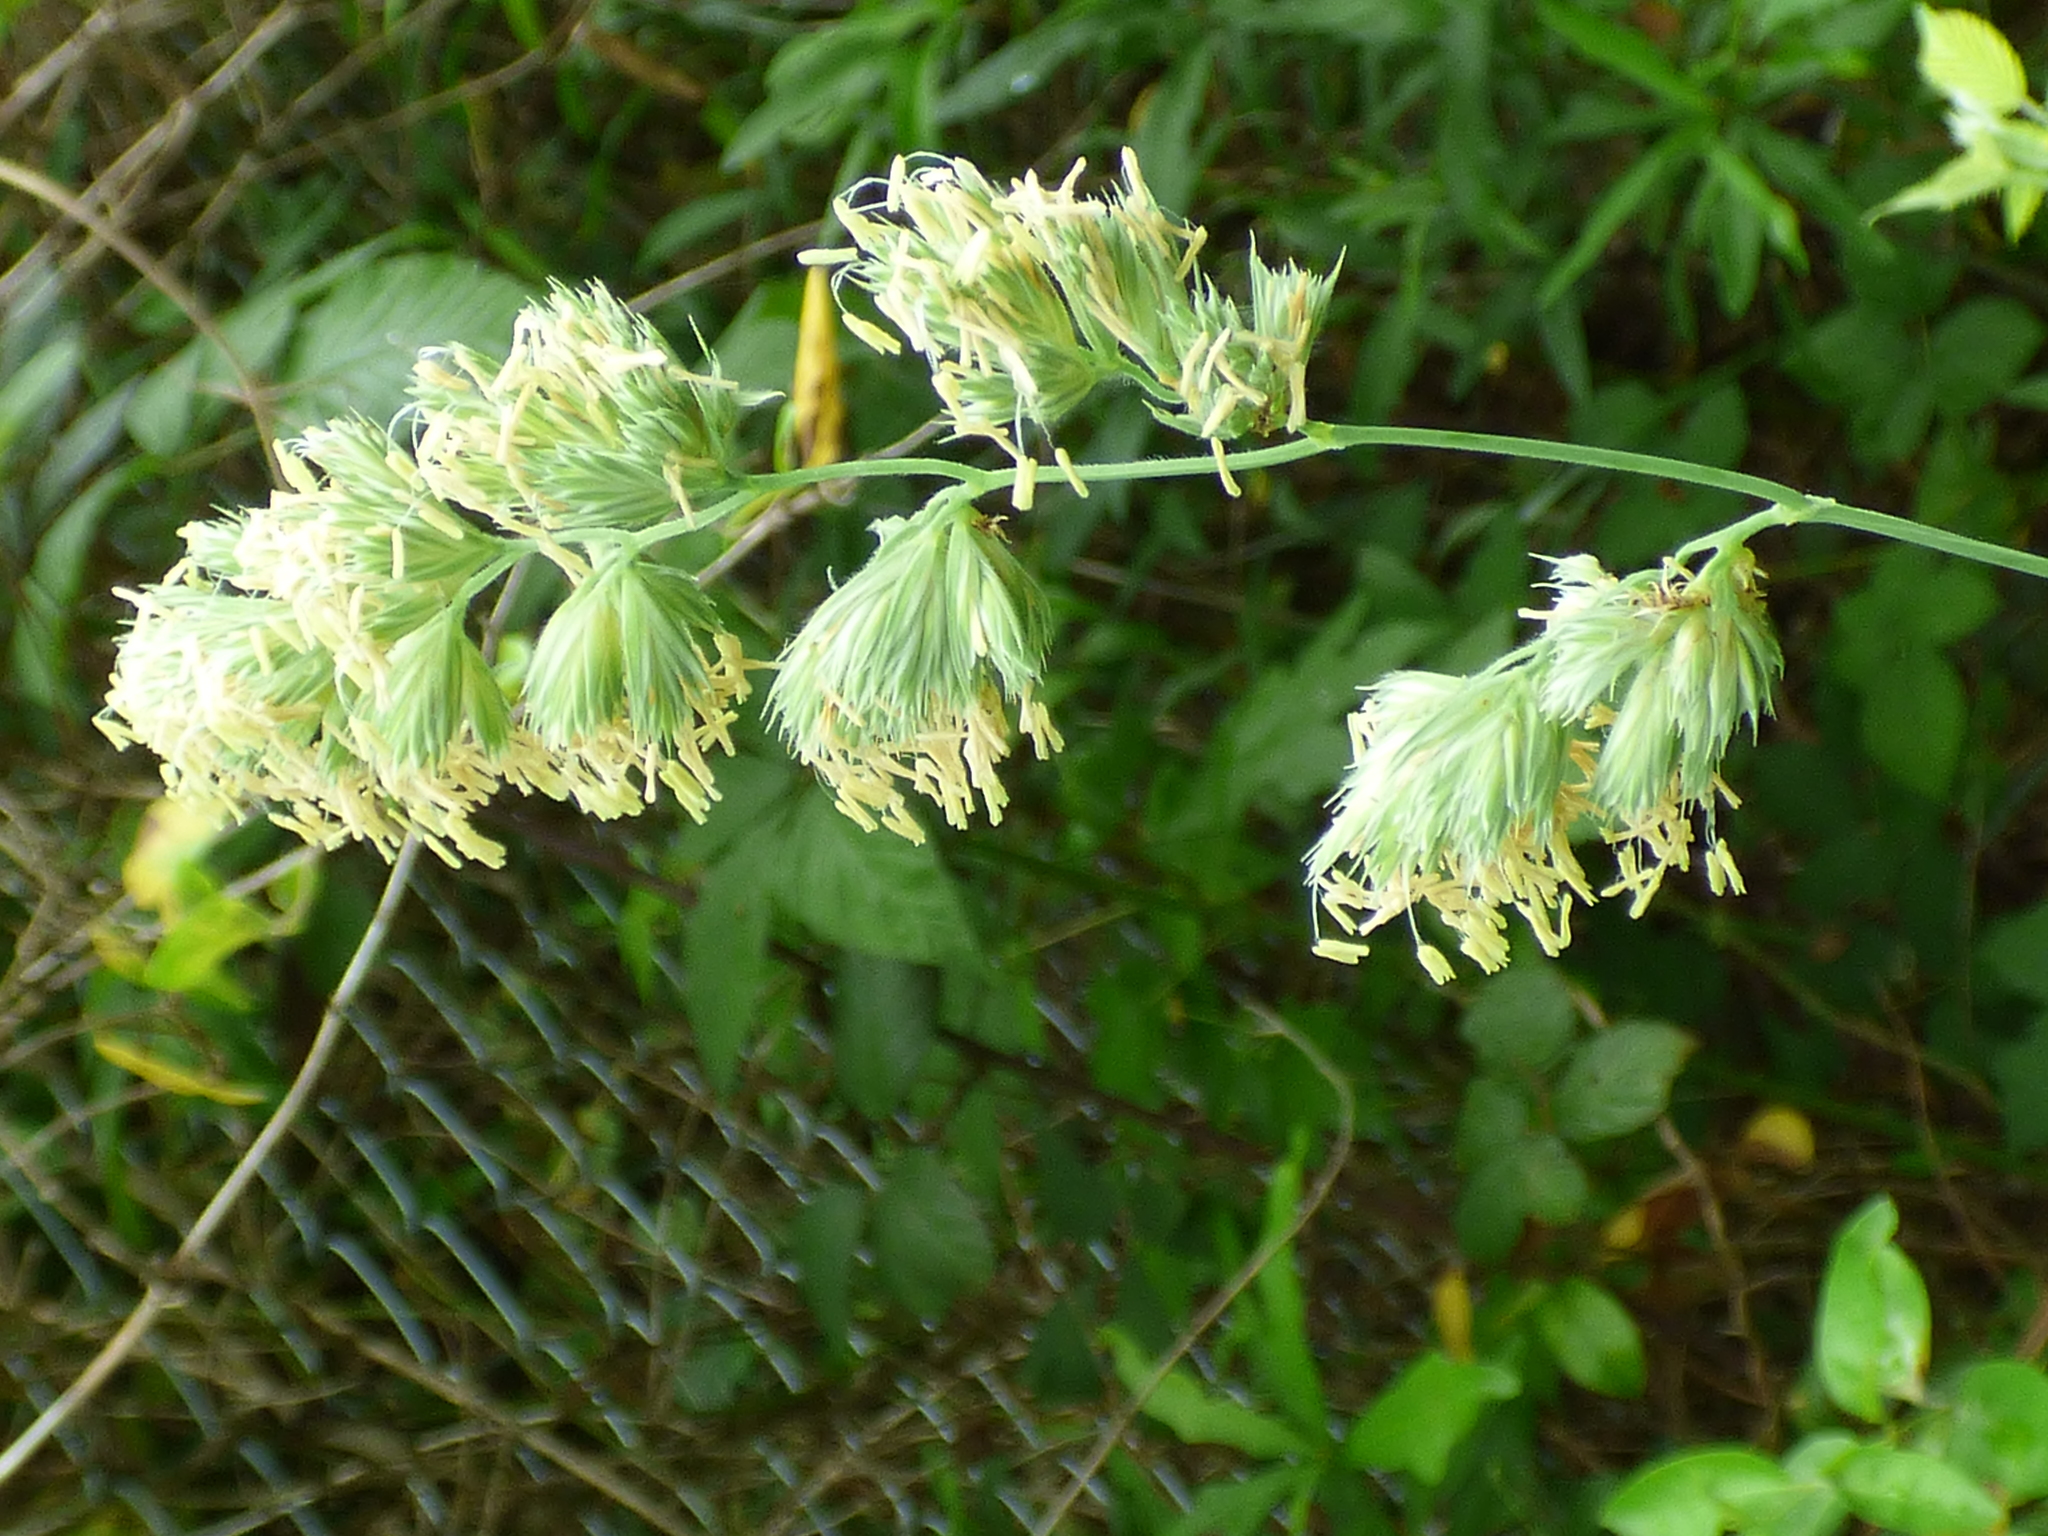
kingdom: Plantae
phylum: Tracheophyta
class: Liliopsida
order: Poales
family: Poaceae
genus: Dactylis
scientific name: Dactylis glomerata
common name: Orchardgrass
